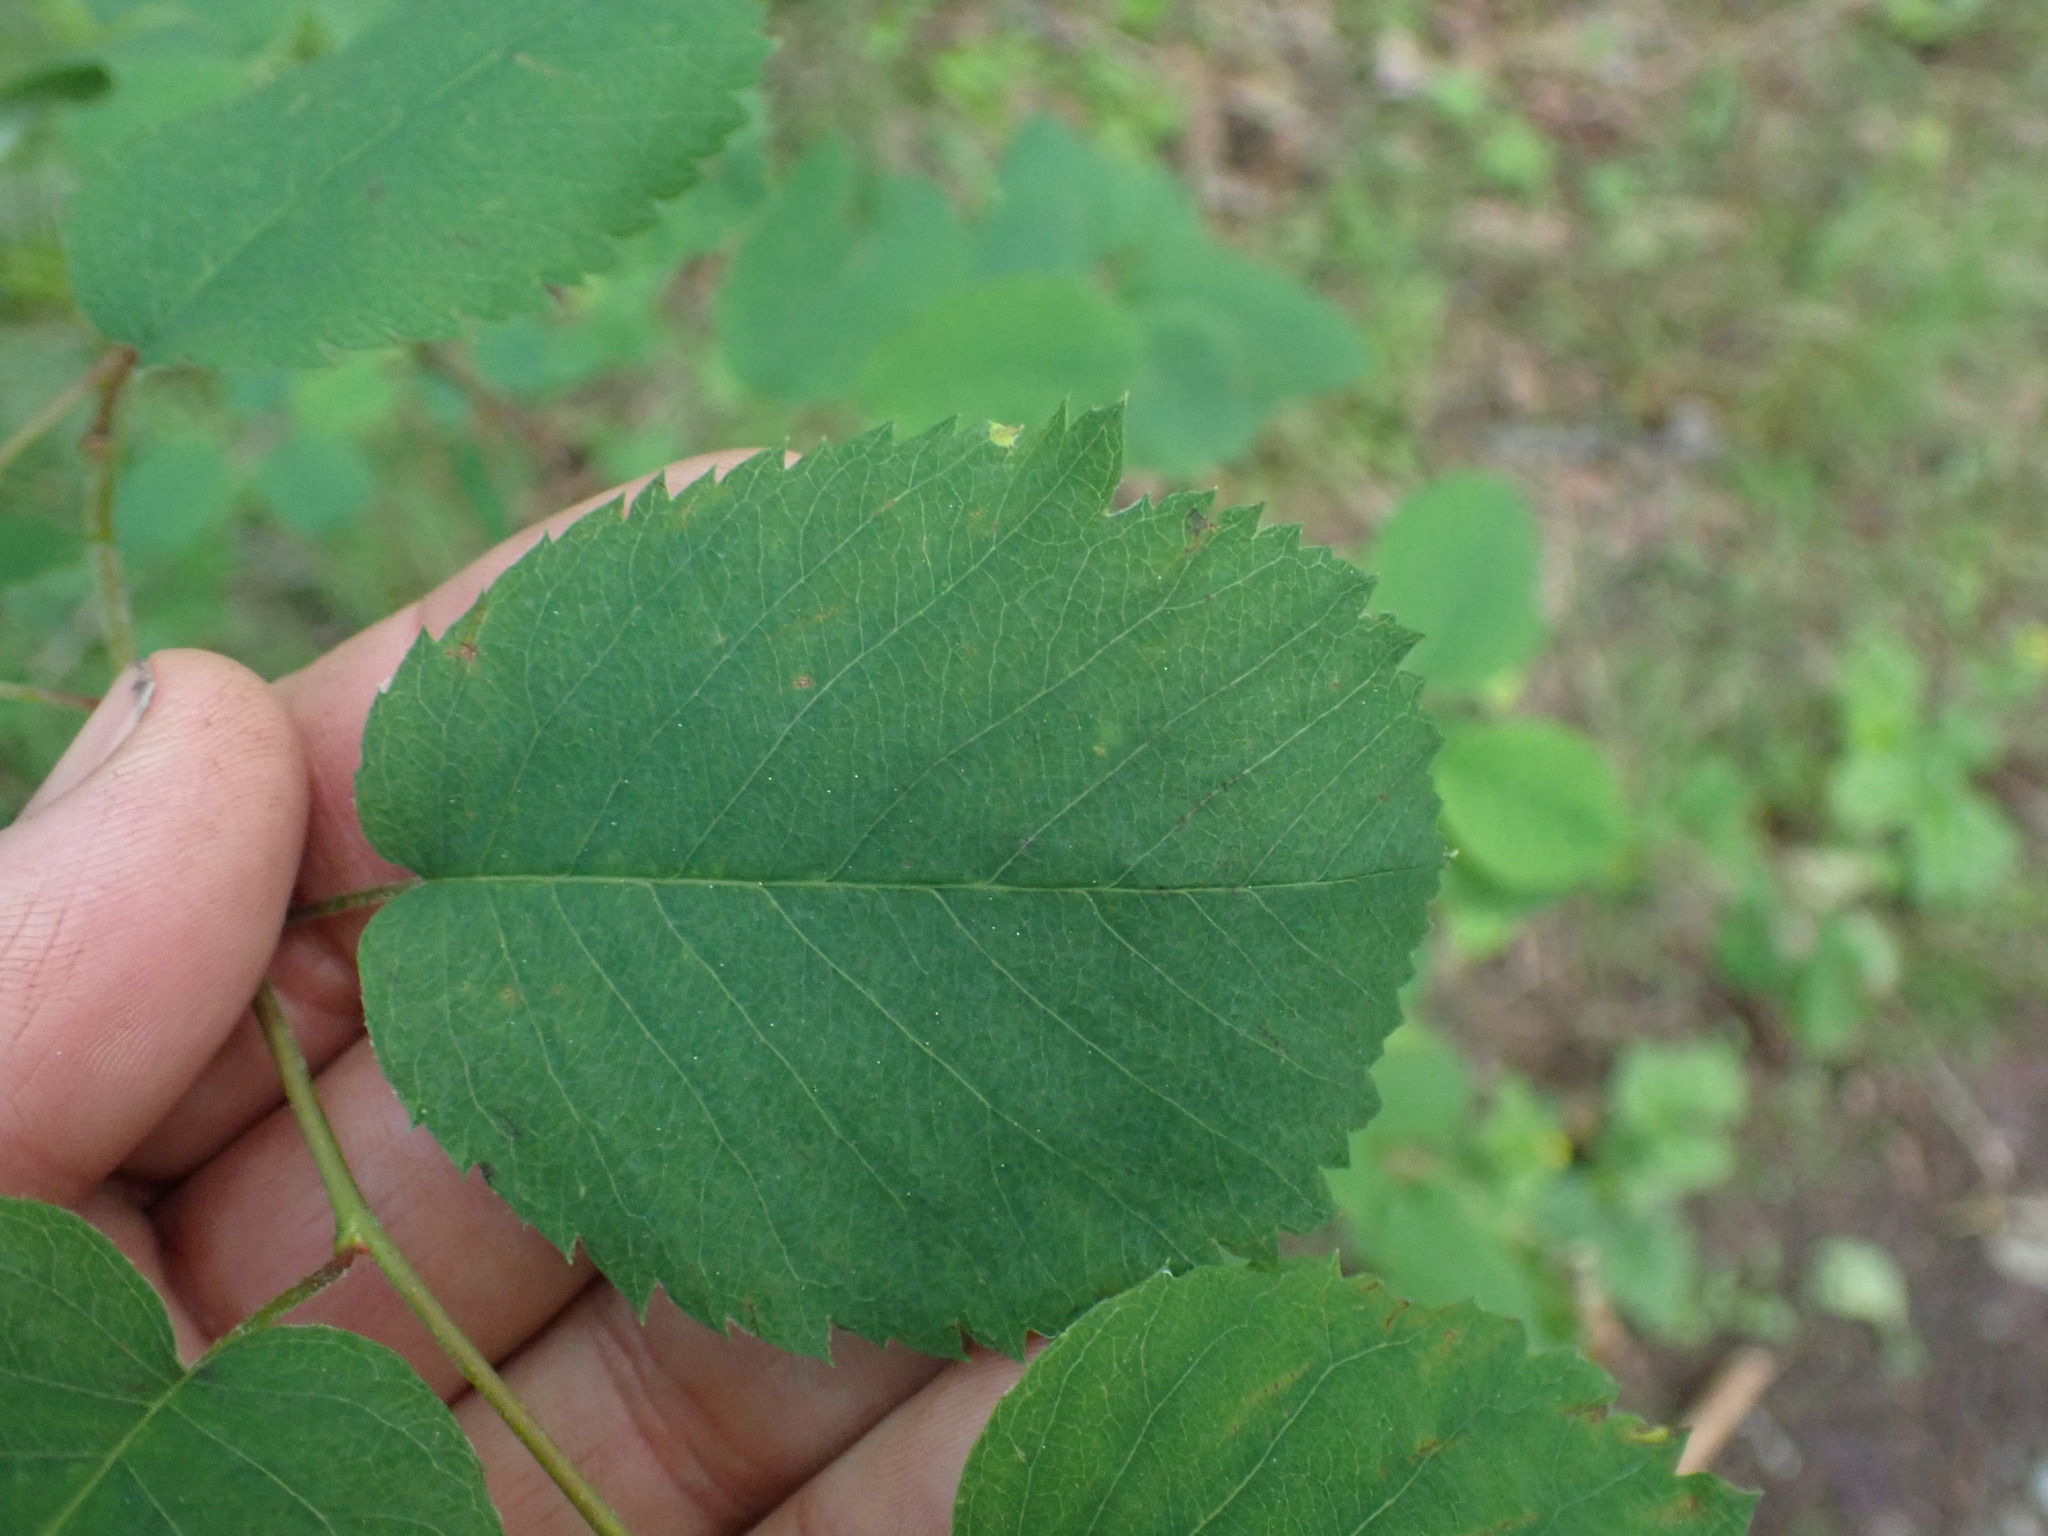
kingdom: Plantae
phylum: Tracheophyta
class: Magnoliopsida
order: Rosales
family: Rosaceae
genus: Amelanchier
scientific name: Amelanchier alnifolia
